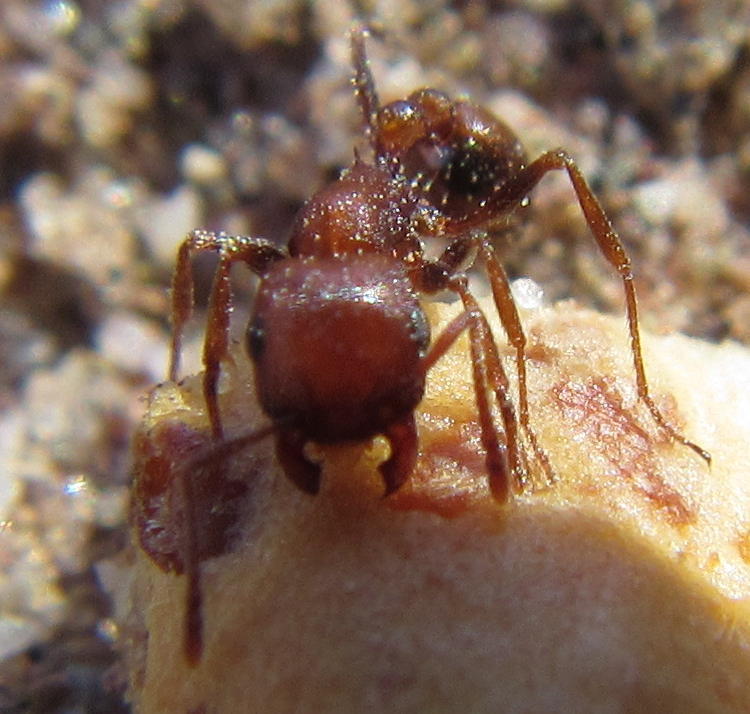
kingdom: Animalia
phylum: Arthropoda
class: Insecta
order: Hymenoptera
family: Formicidae
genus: Tetramorium
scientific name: Tetramorium rufescens
